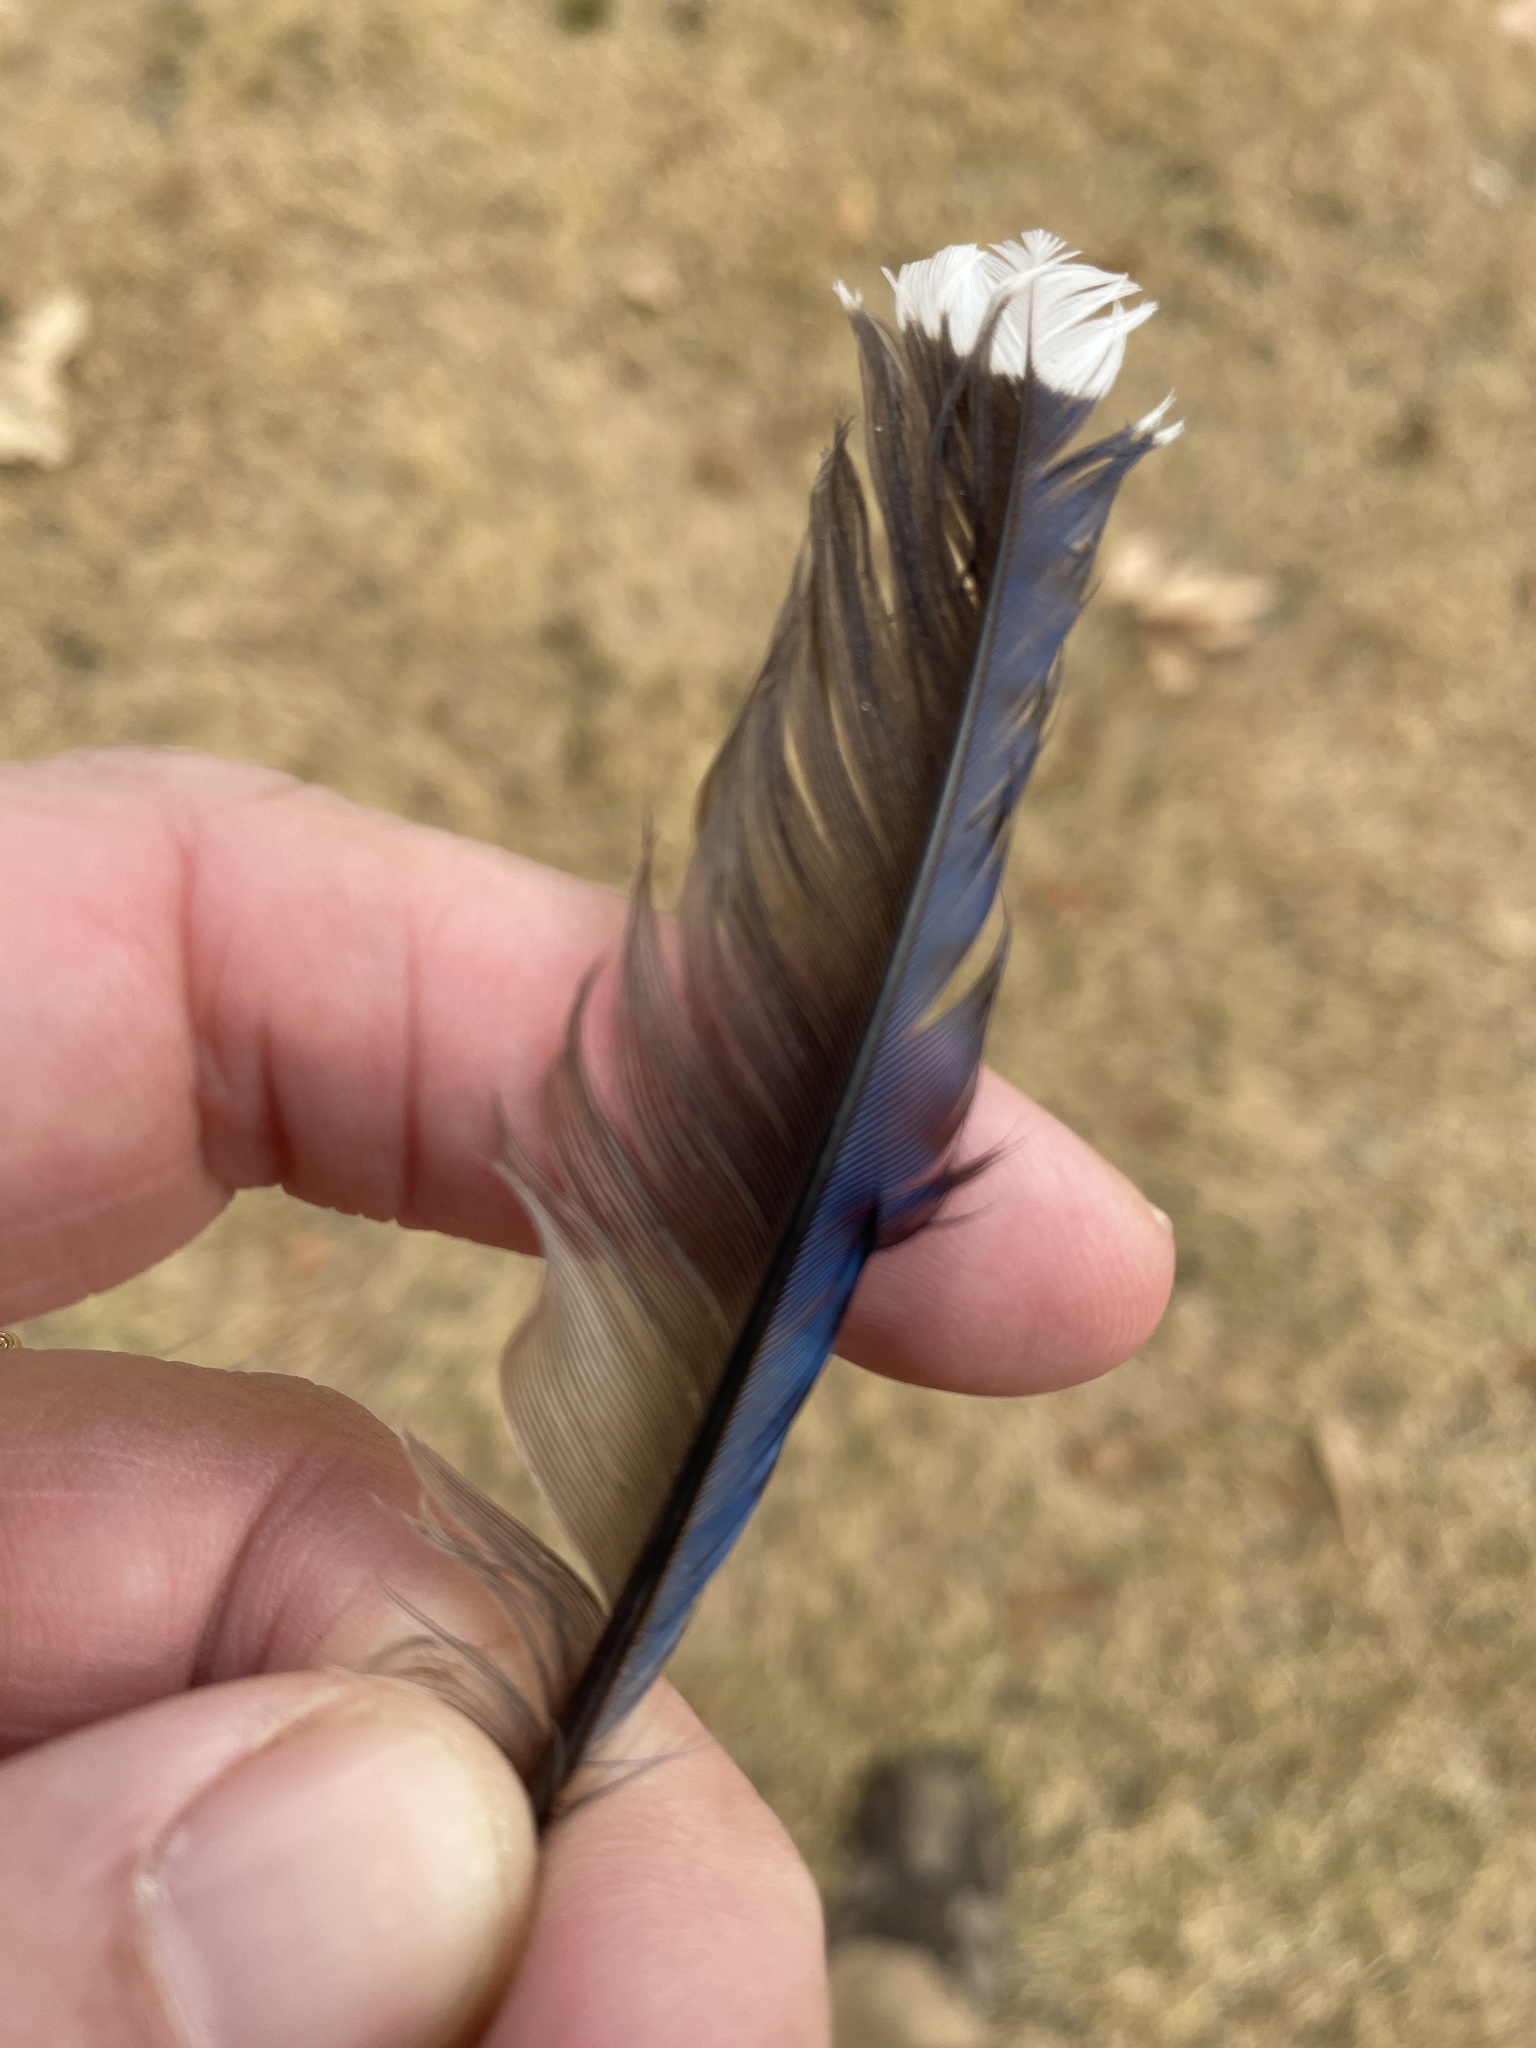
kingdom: Animalia
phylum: Chordata
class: Aves
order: Passeriformes
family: Corvidae
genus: Cyanocitta
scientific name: Cyanocitta cristata
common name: Blue jay
